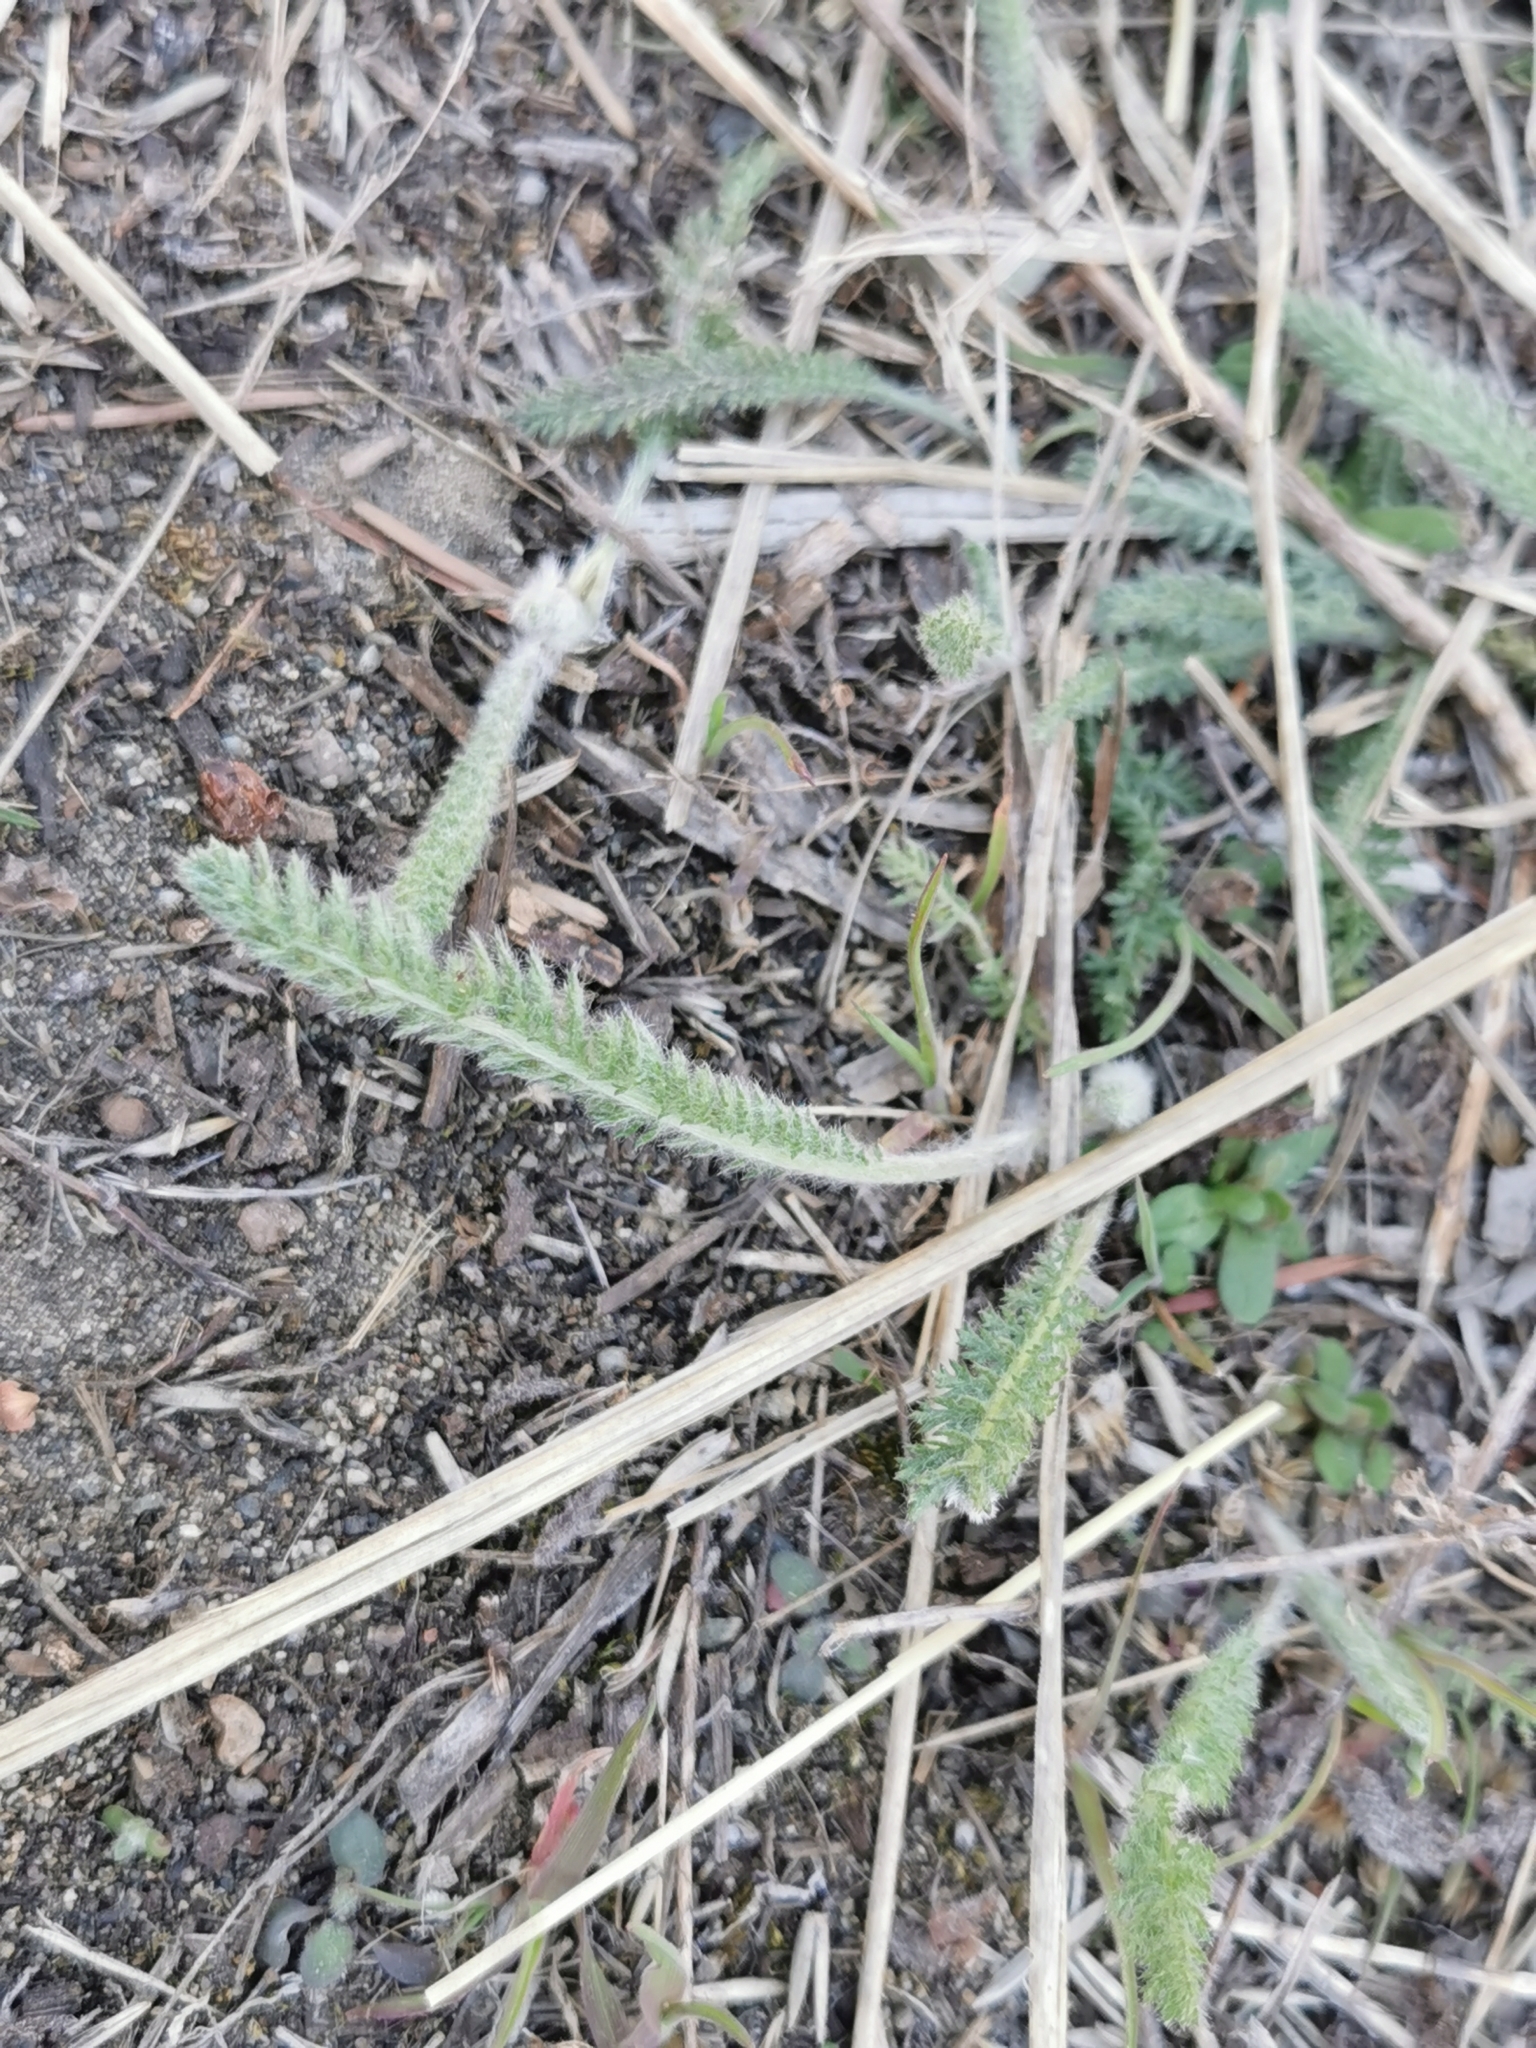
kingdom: Plantae
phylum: Tracheophyta
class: Magnoliopsida
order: Asterales
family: Asteraceae
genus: Achillea
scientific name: Achillea millefolium
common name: Yarrow
